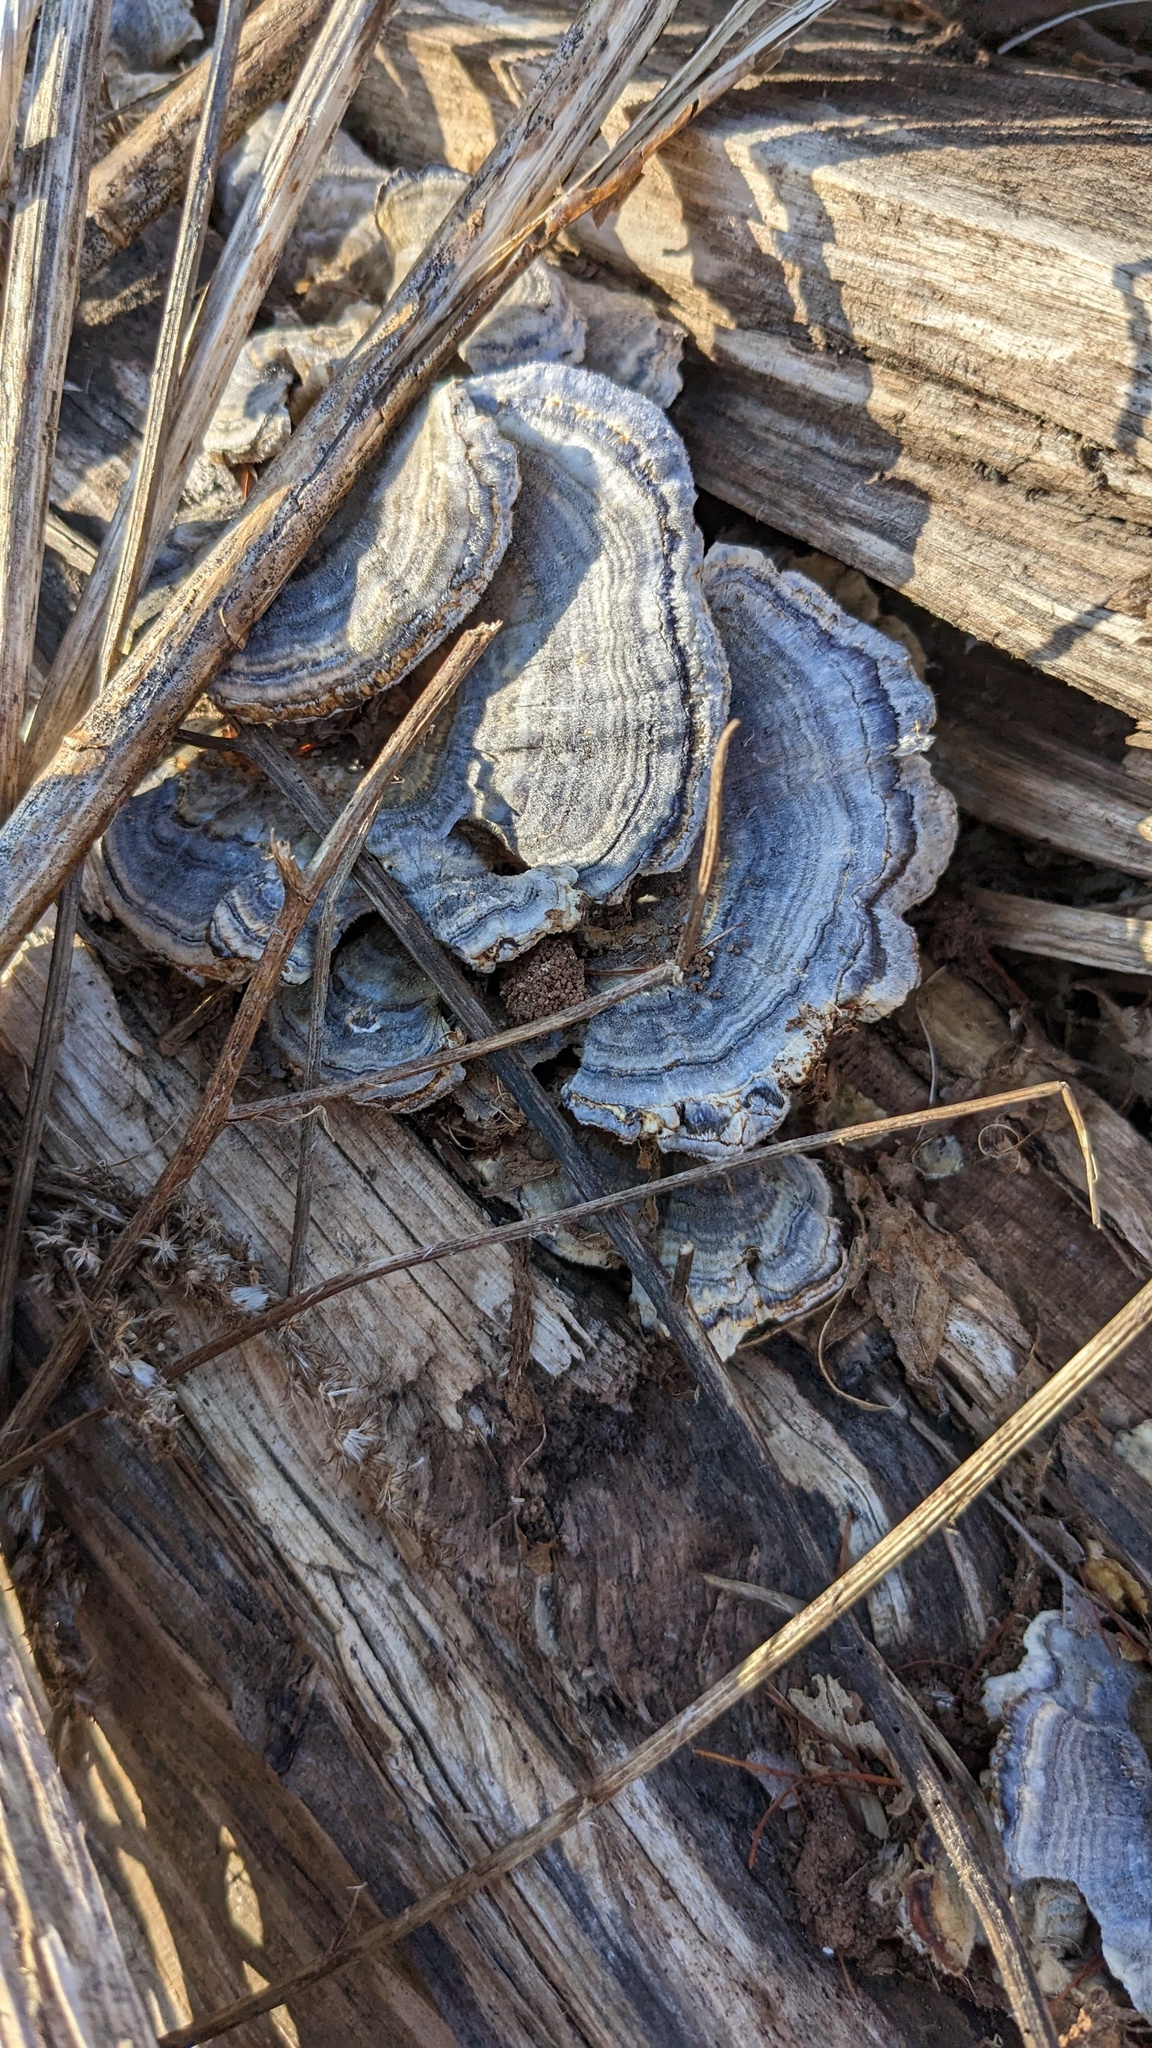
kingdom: Fungi
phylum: Basidiomycota
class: Agaricomycetes
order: Polyporales
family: Polyporaceae
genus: Trametes
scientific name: Trametes versicolor
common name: Turkeytail
